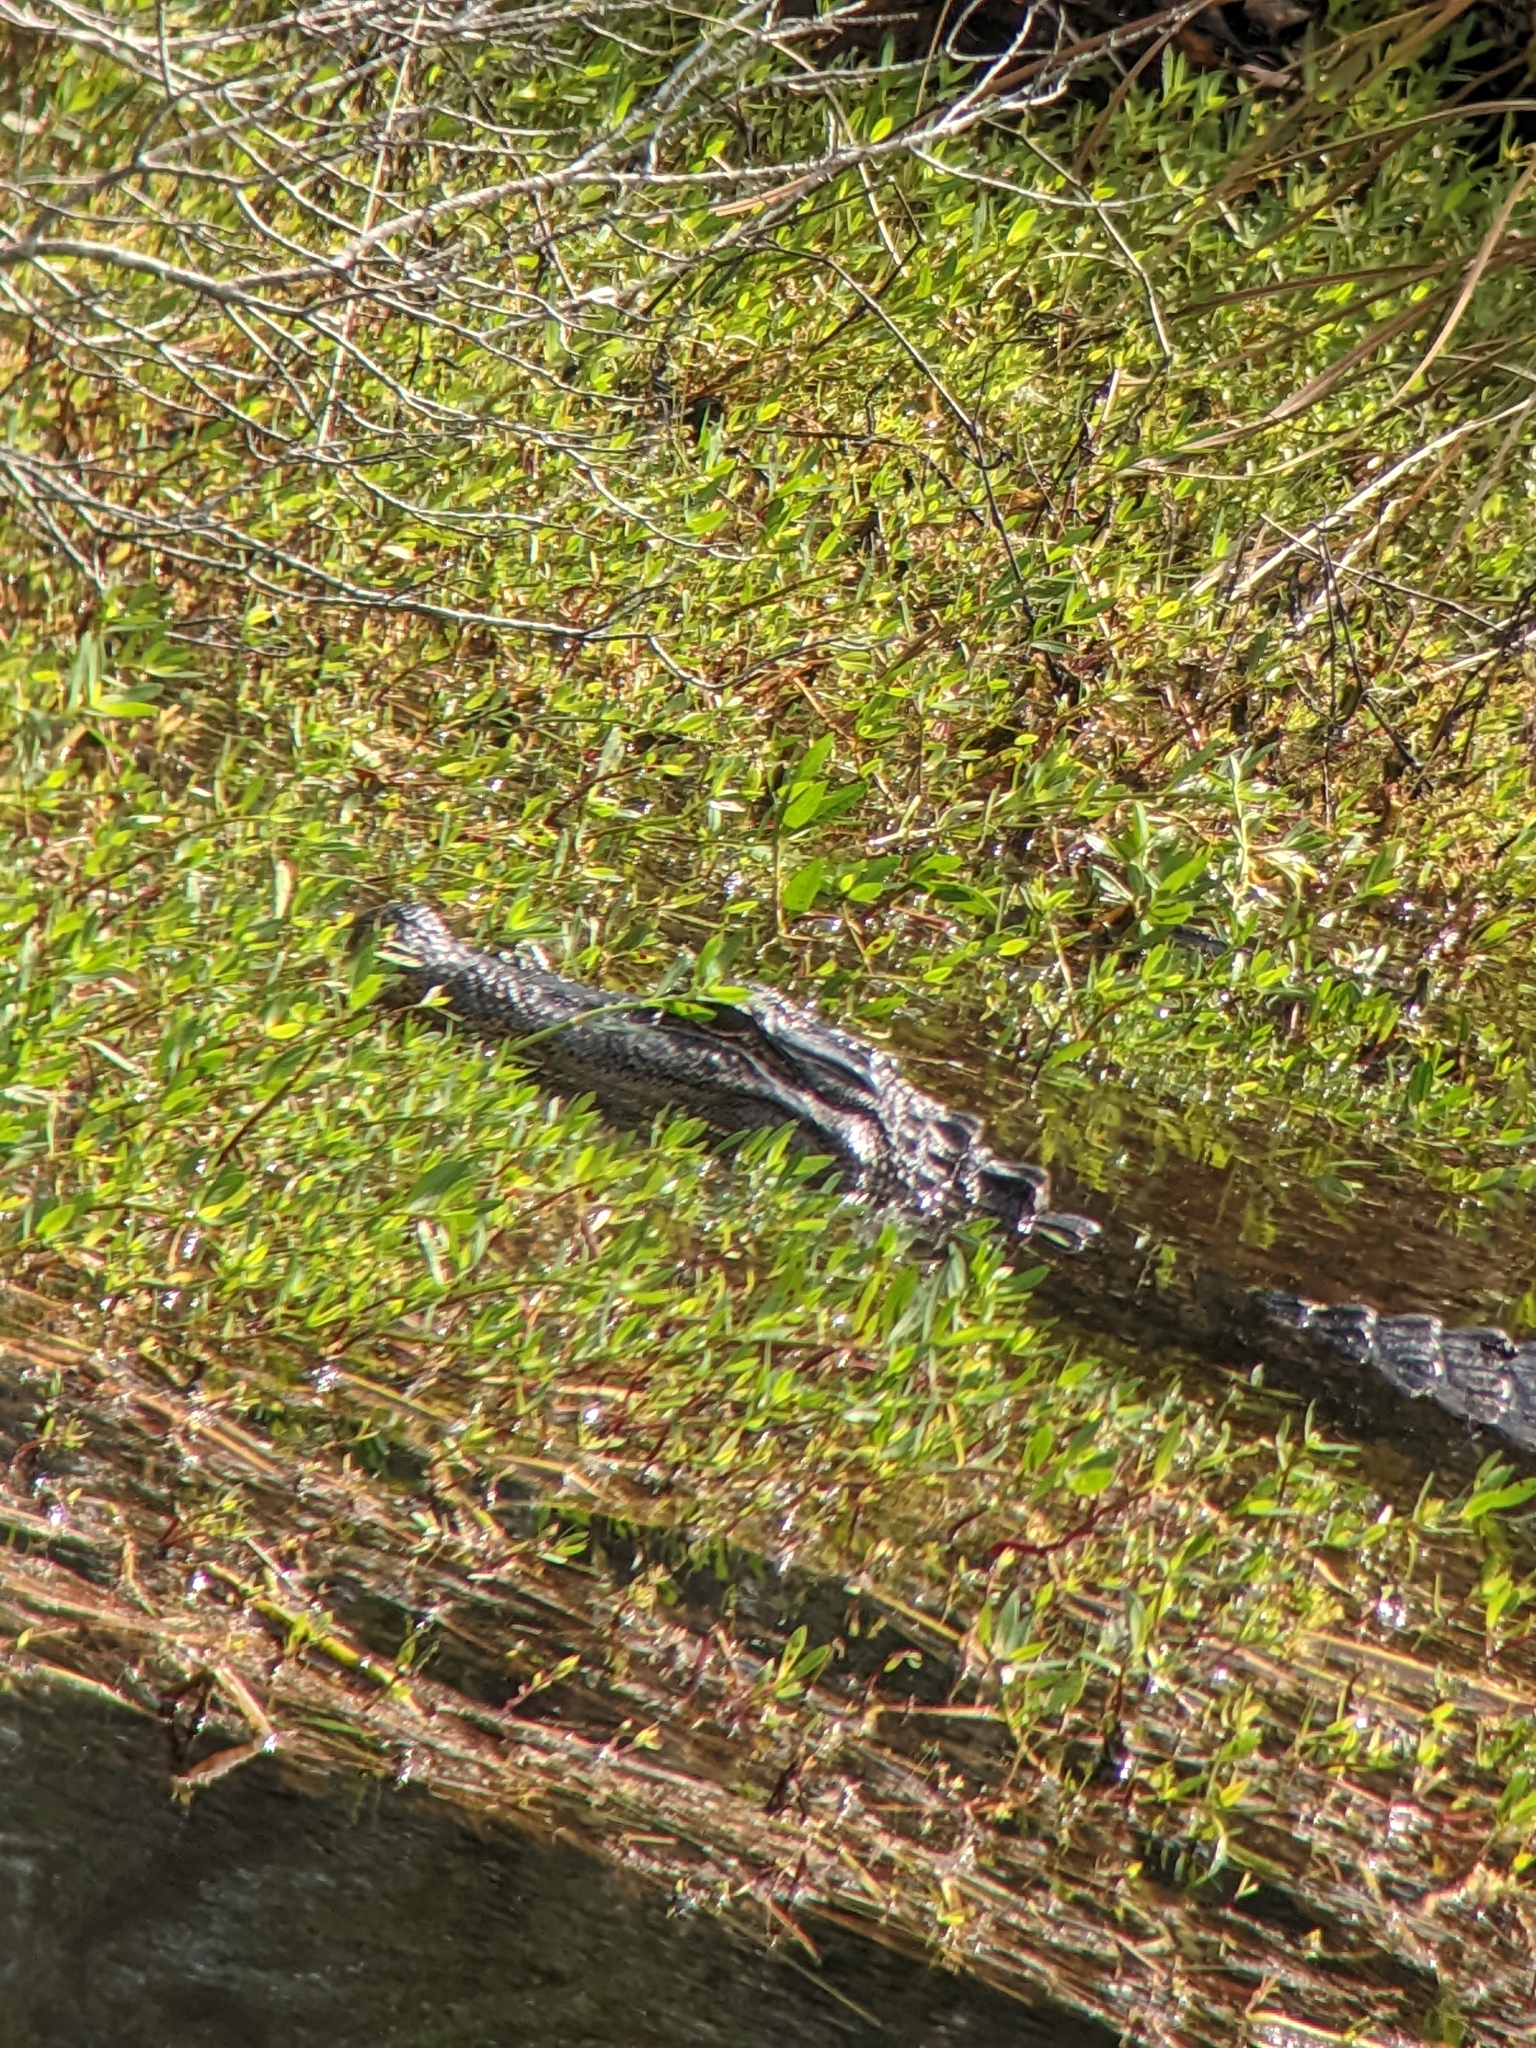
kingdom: Animalia
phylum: Chordata
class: Crocodylia
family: Alligatoridae
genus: Alligator
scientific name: Alligator mississippiensis
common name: American alligator
